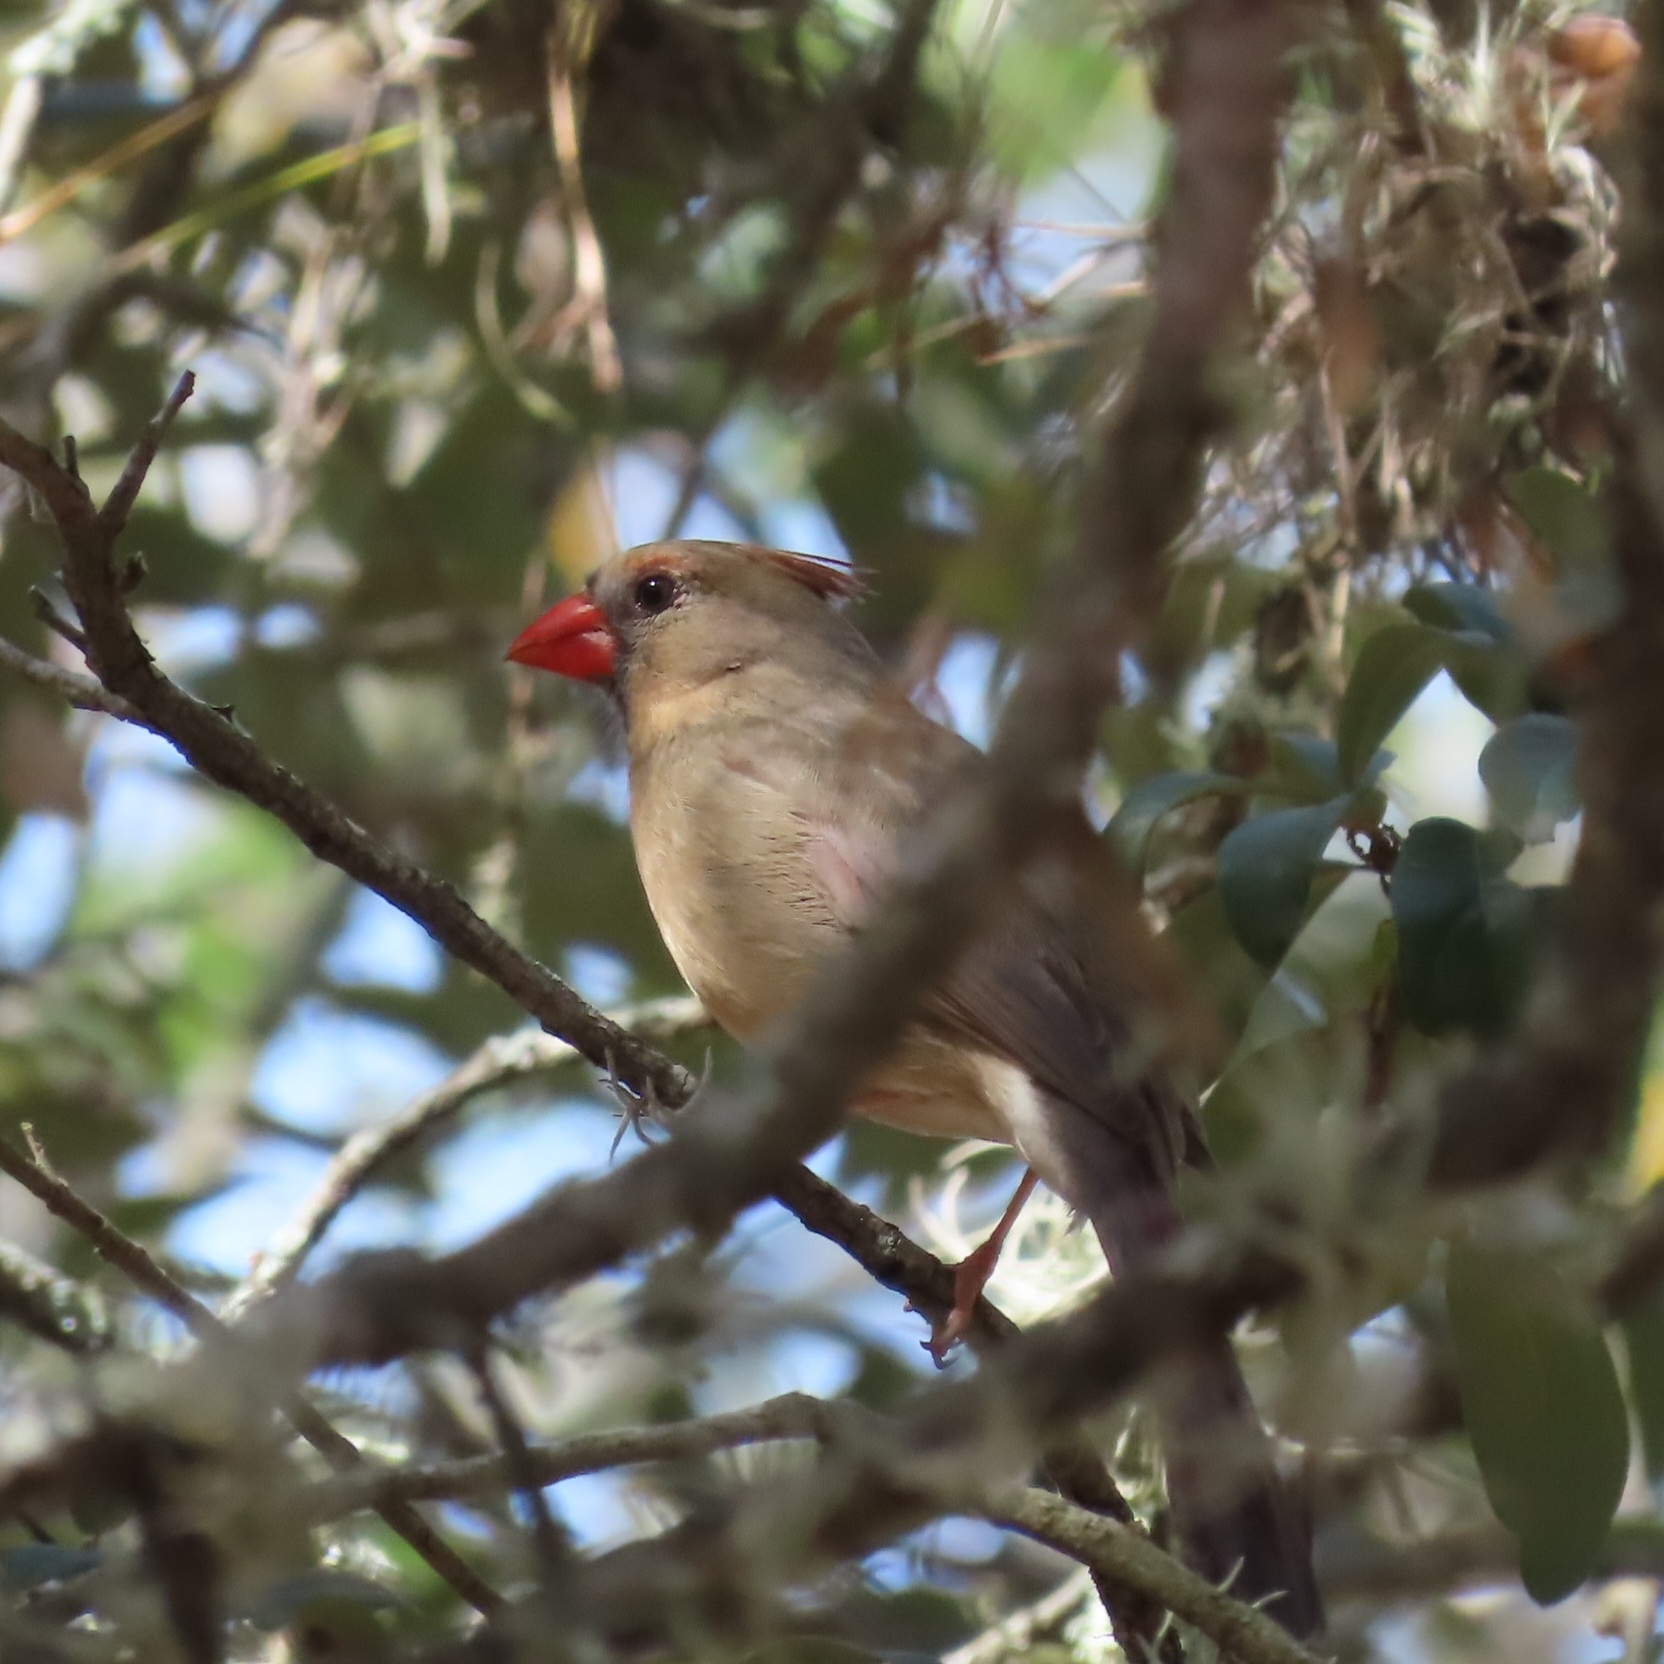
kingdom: Animalia
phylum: Chordata
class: Aves
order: Passeriformes
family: Cardinalidae
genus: Cardinalis
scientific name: Cardinalis cardinalis
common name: Northern cardinal
